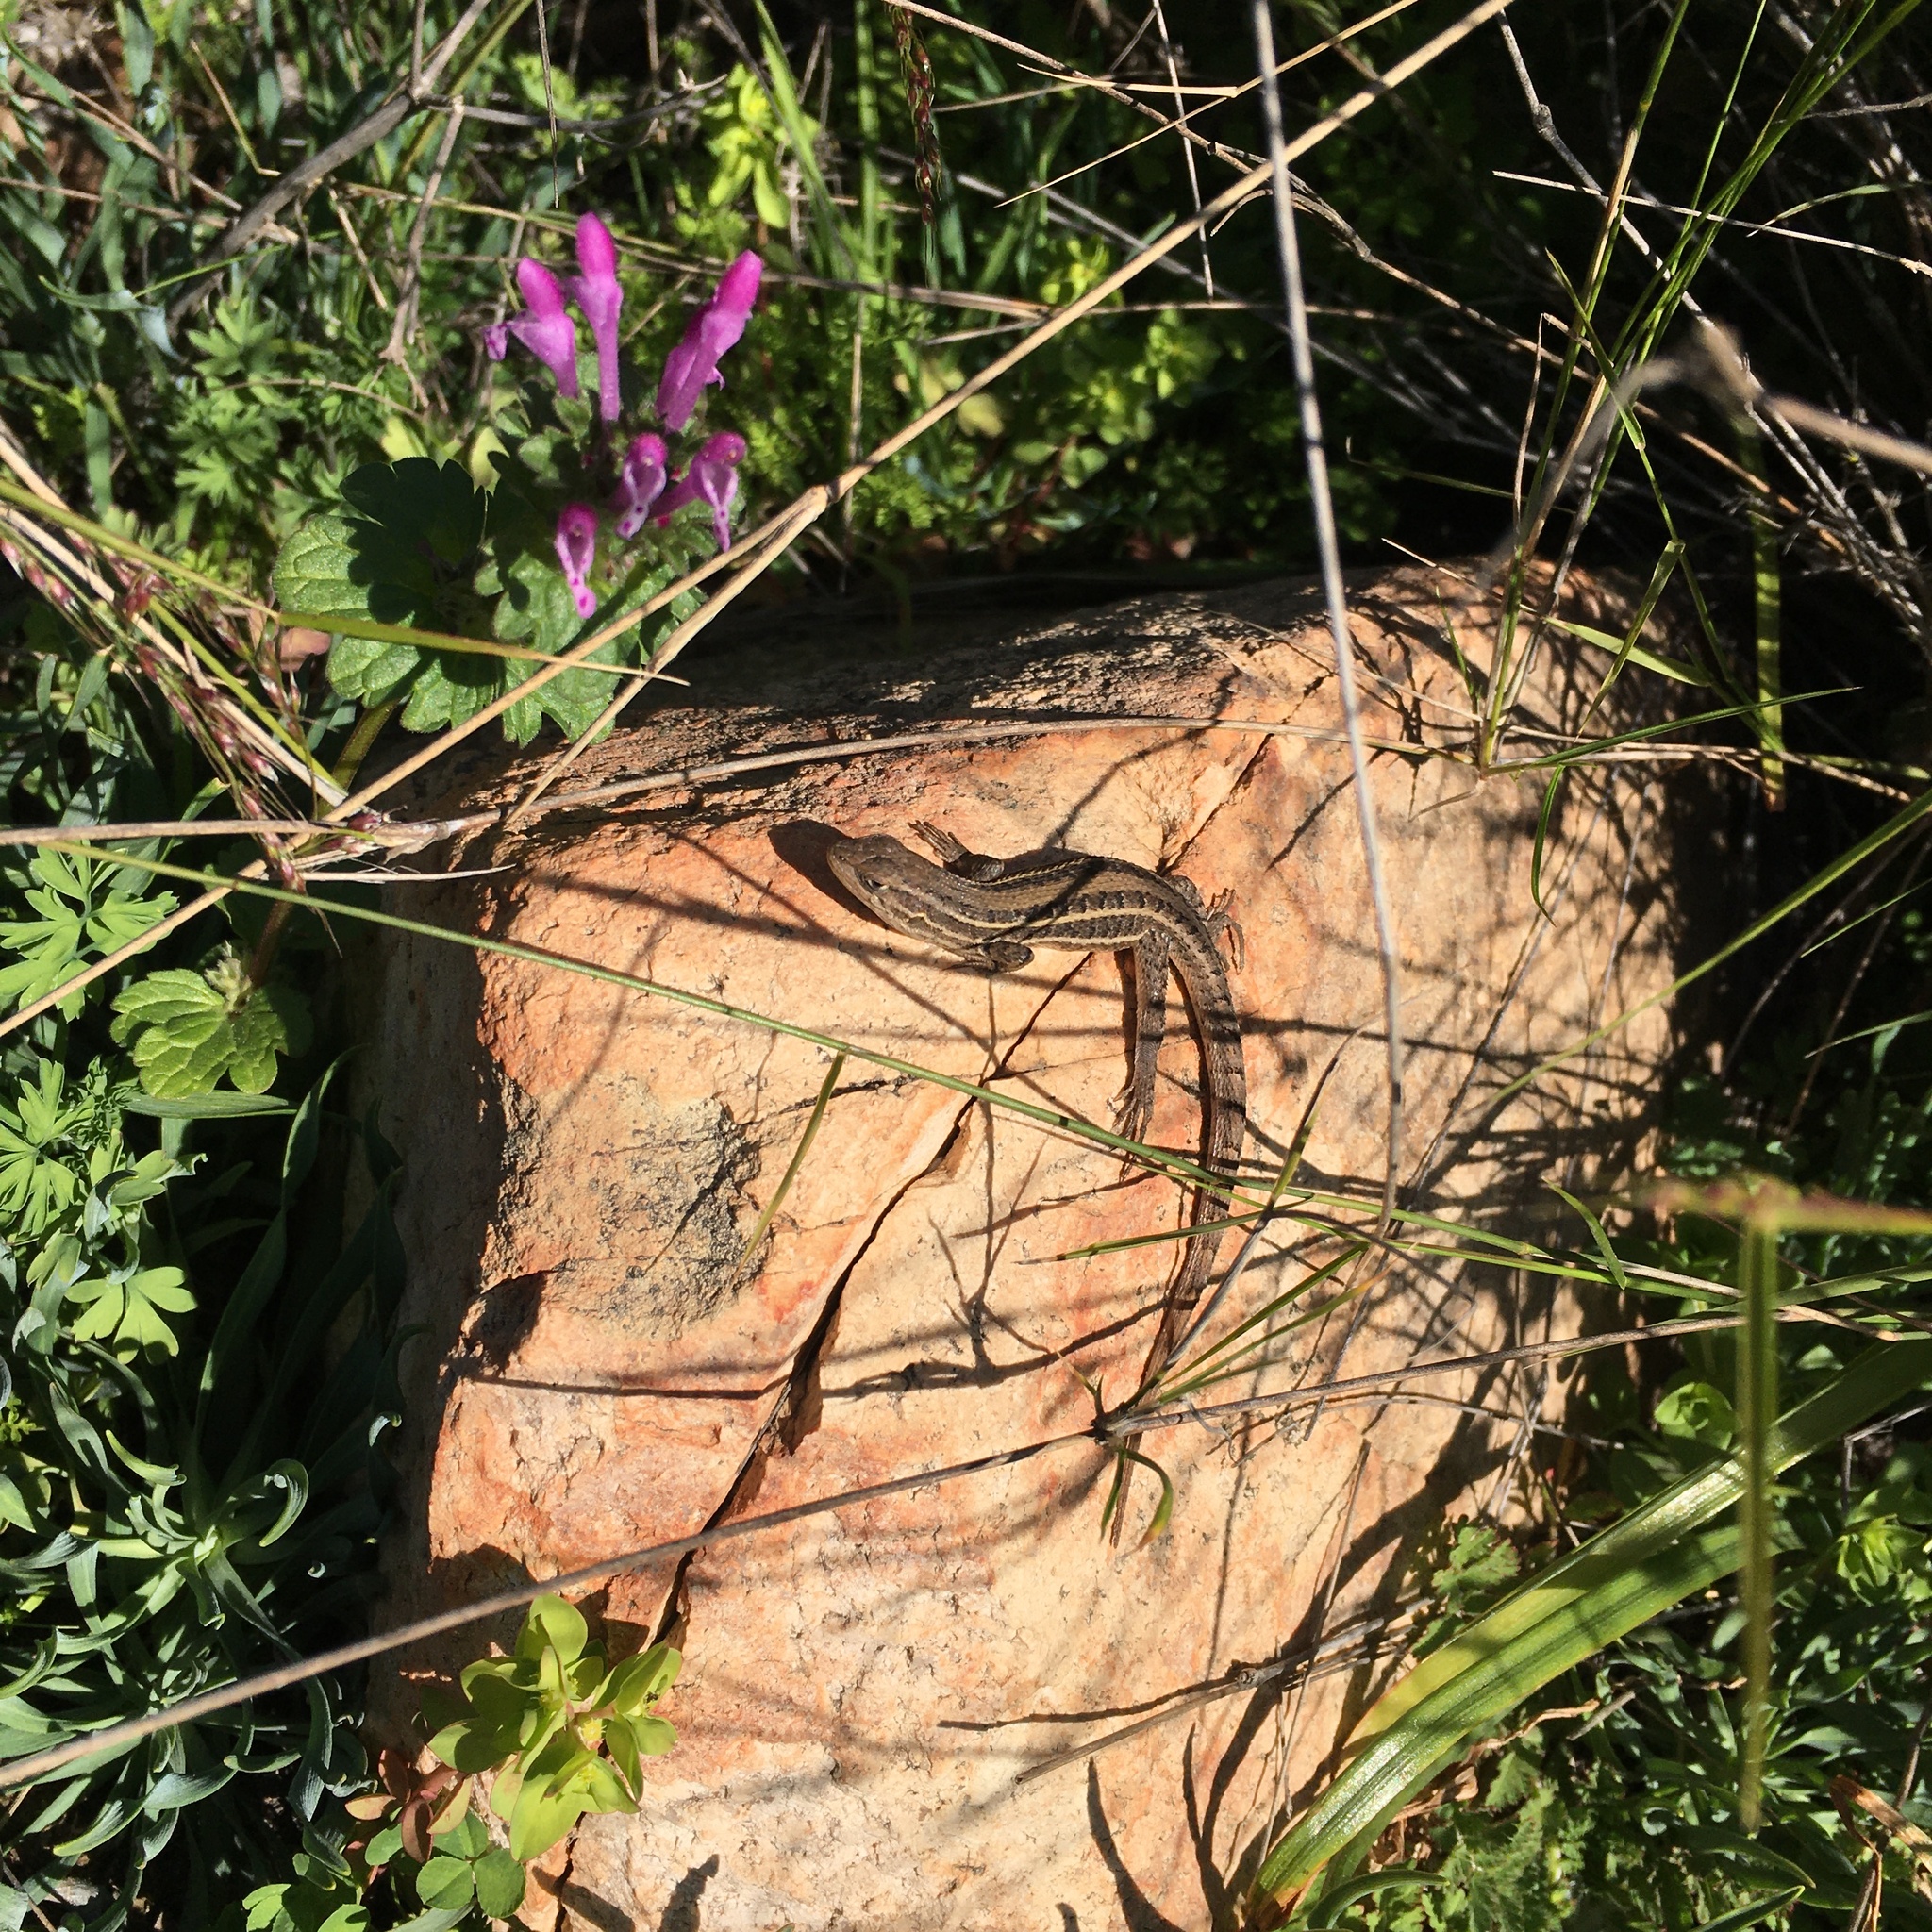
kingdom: Animalia
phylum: Chordata
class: Squamata
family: Liolaemidae
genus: Liolaemus
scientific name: Liolaemus lemniscatus
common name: Wreath tree iguana
